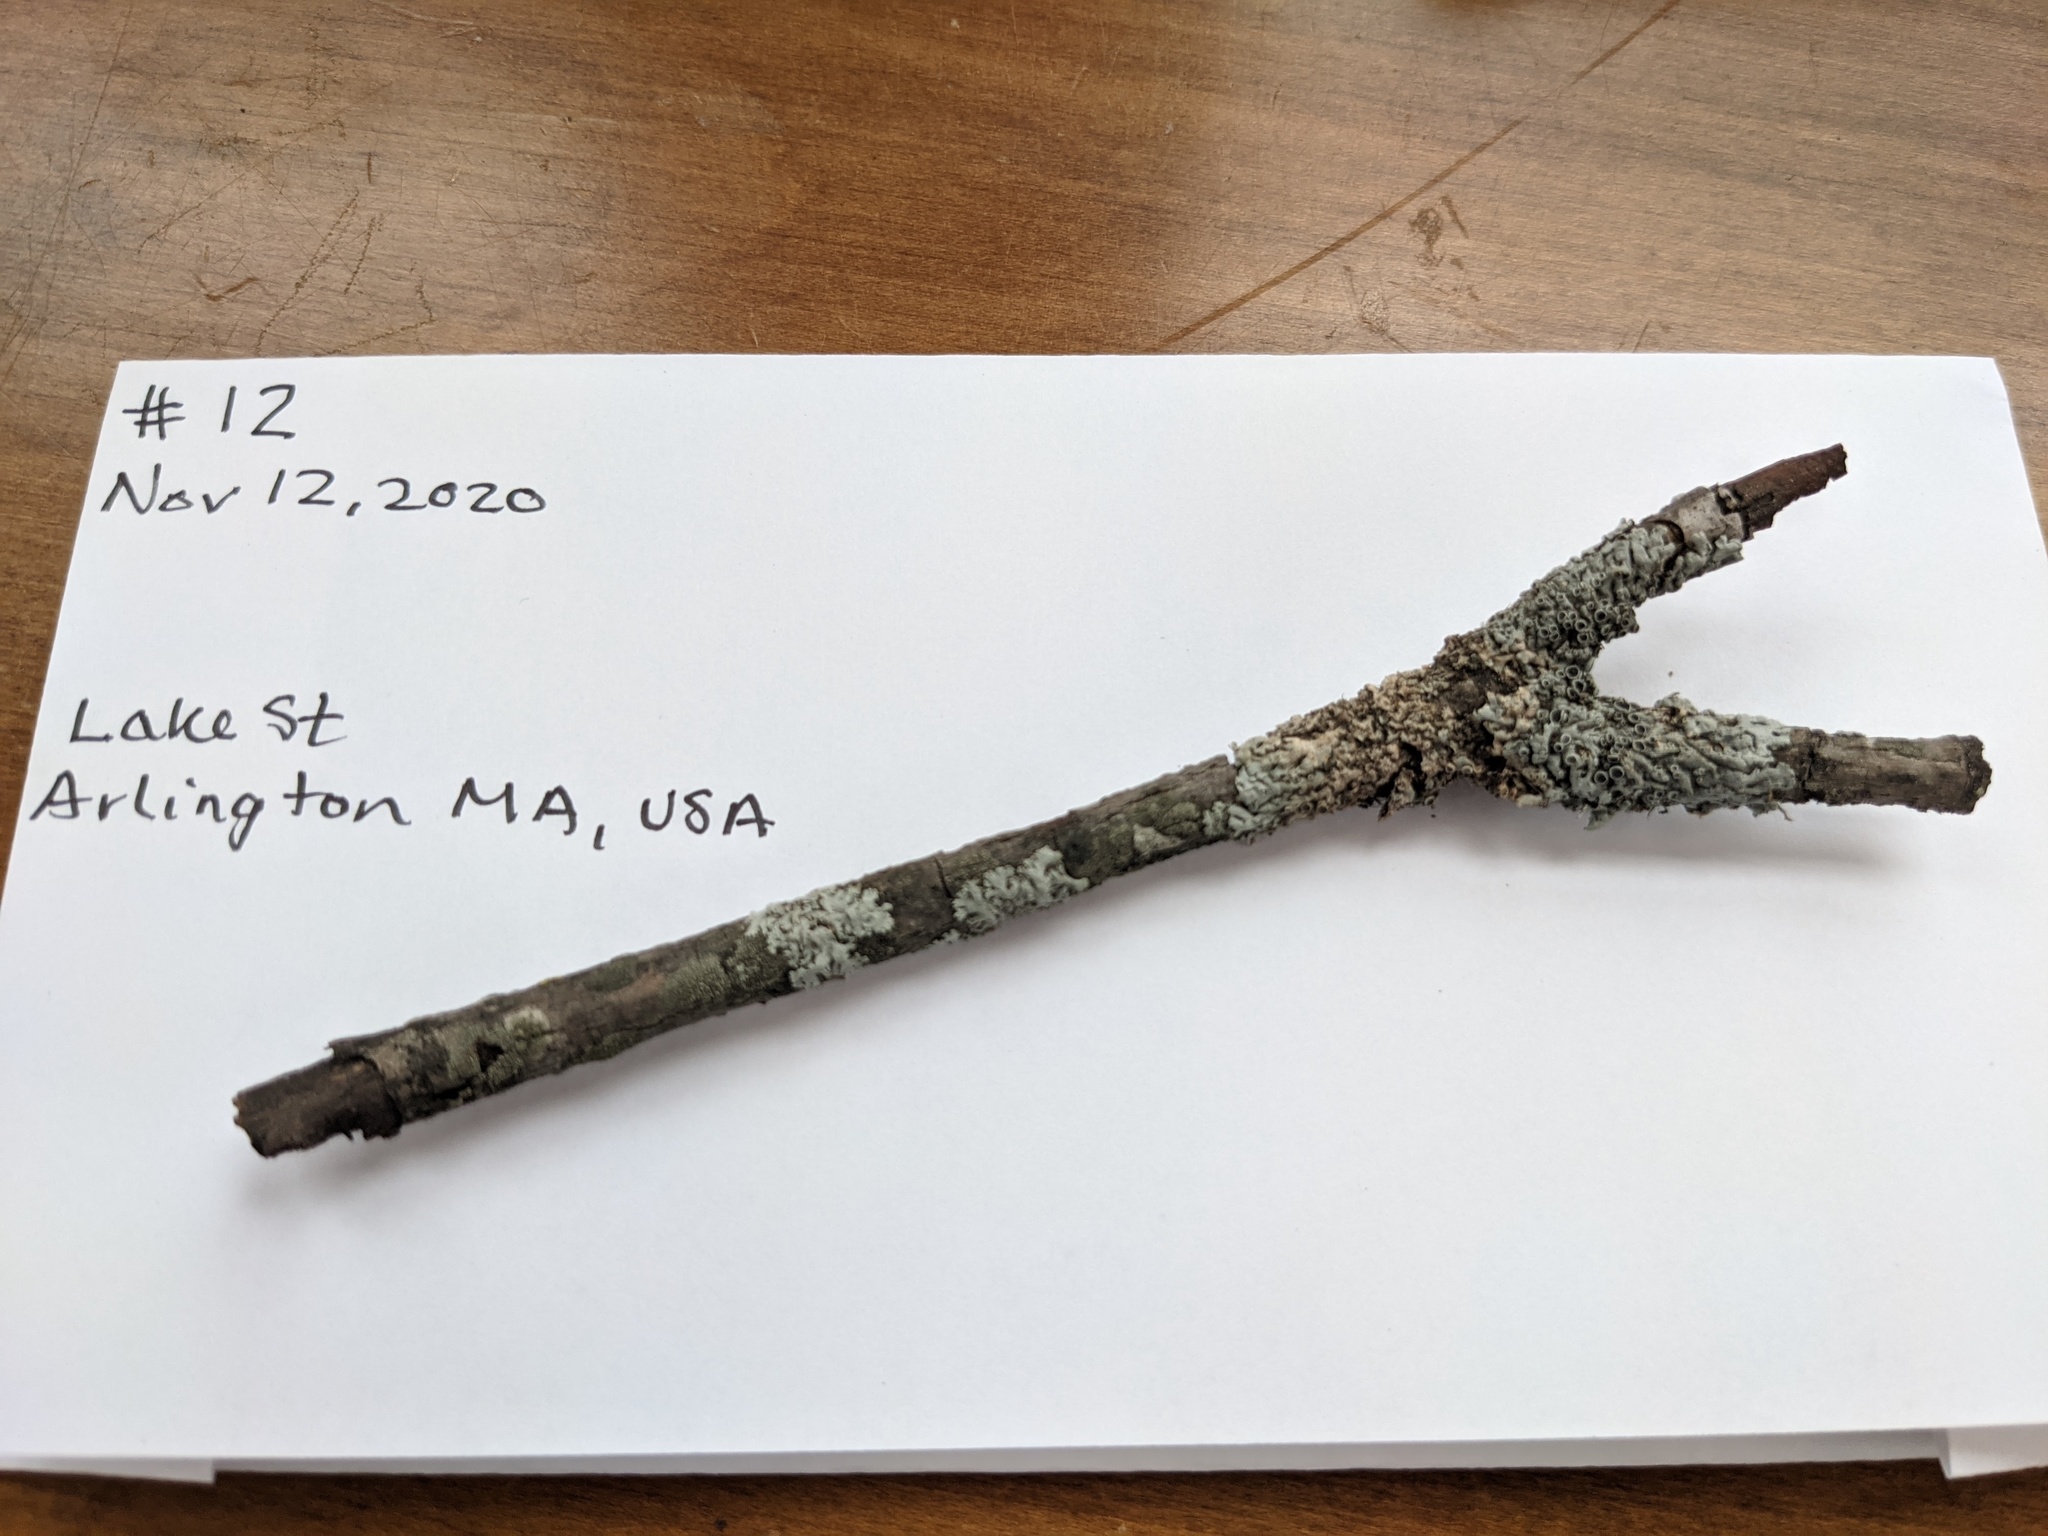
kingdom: Fungi
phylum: Ascomycota
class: Lecanoromycetes
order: Caliciales
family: Physciaceae
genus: Physcia
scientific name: Physcia stellaris
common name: Star rosette lichen
